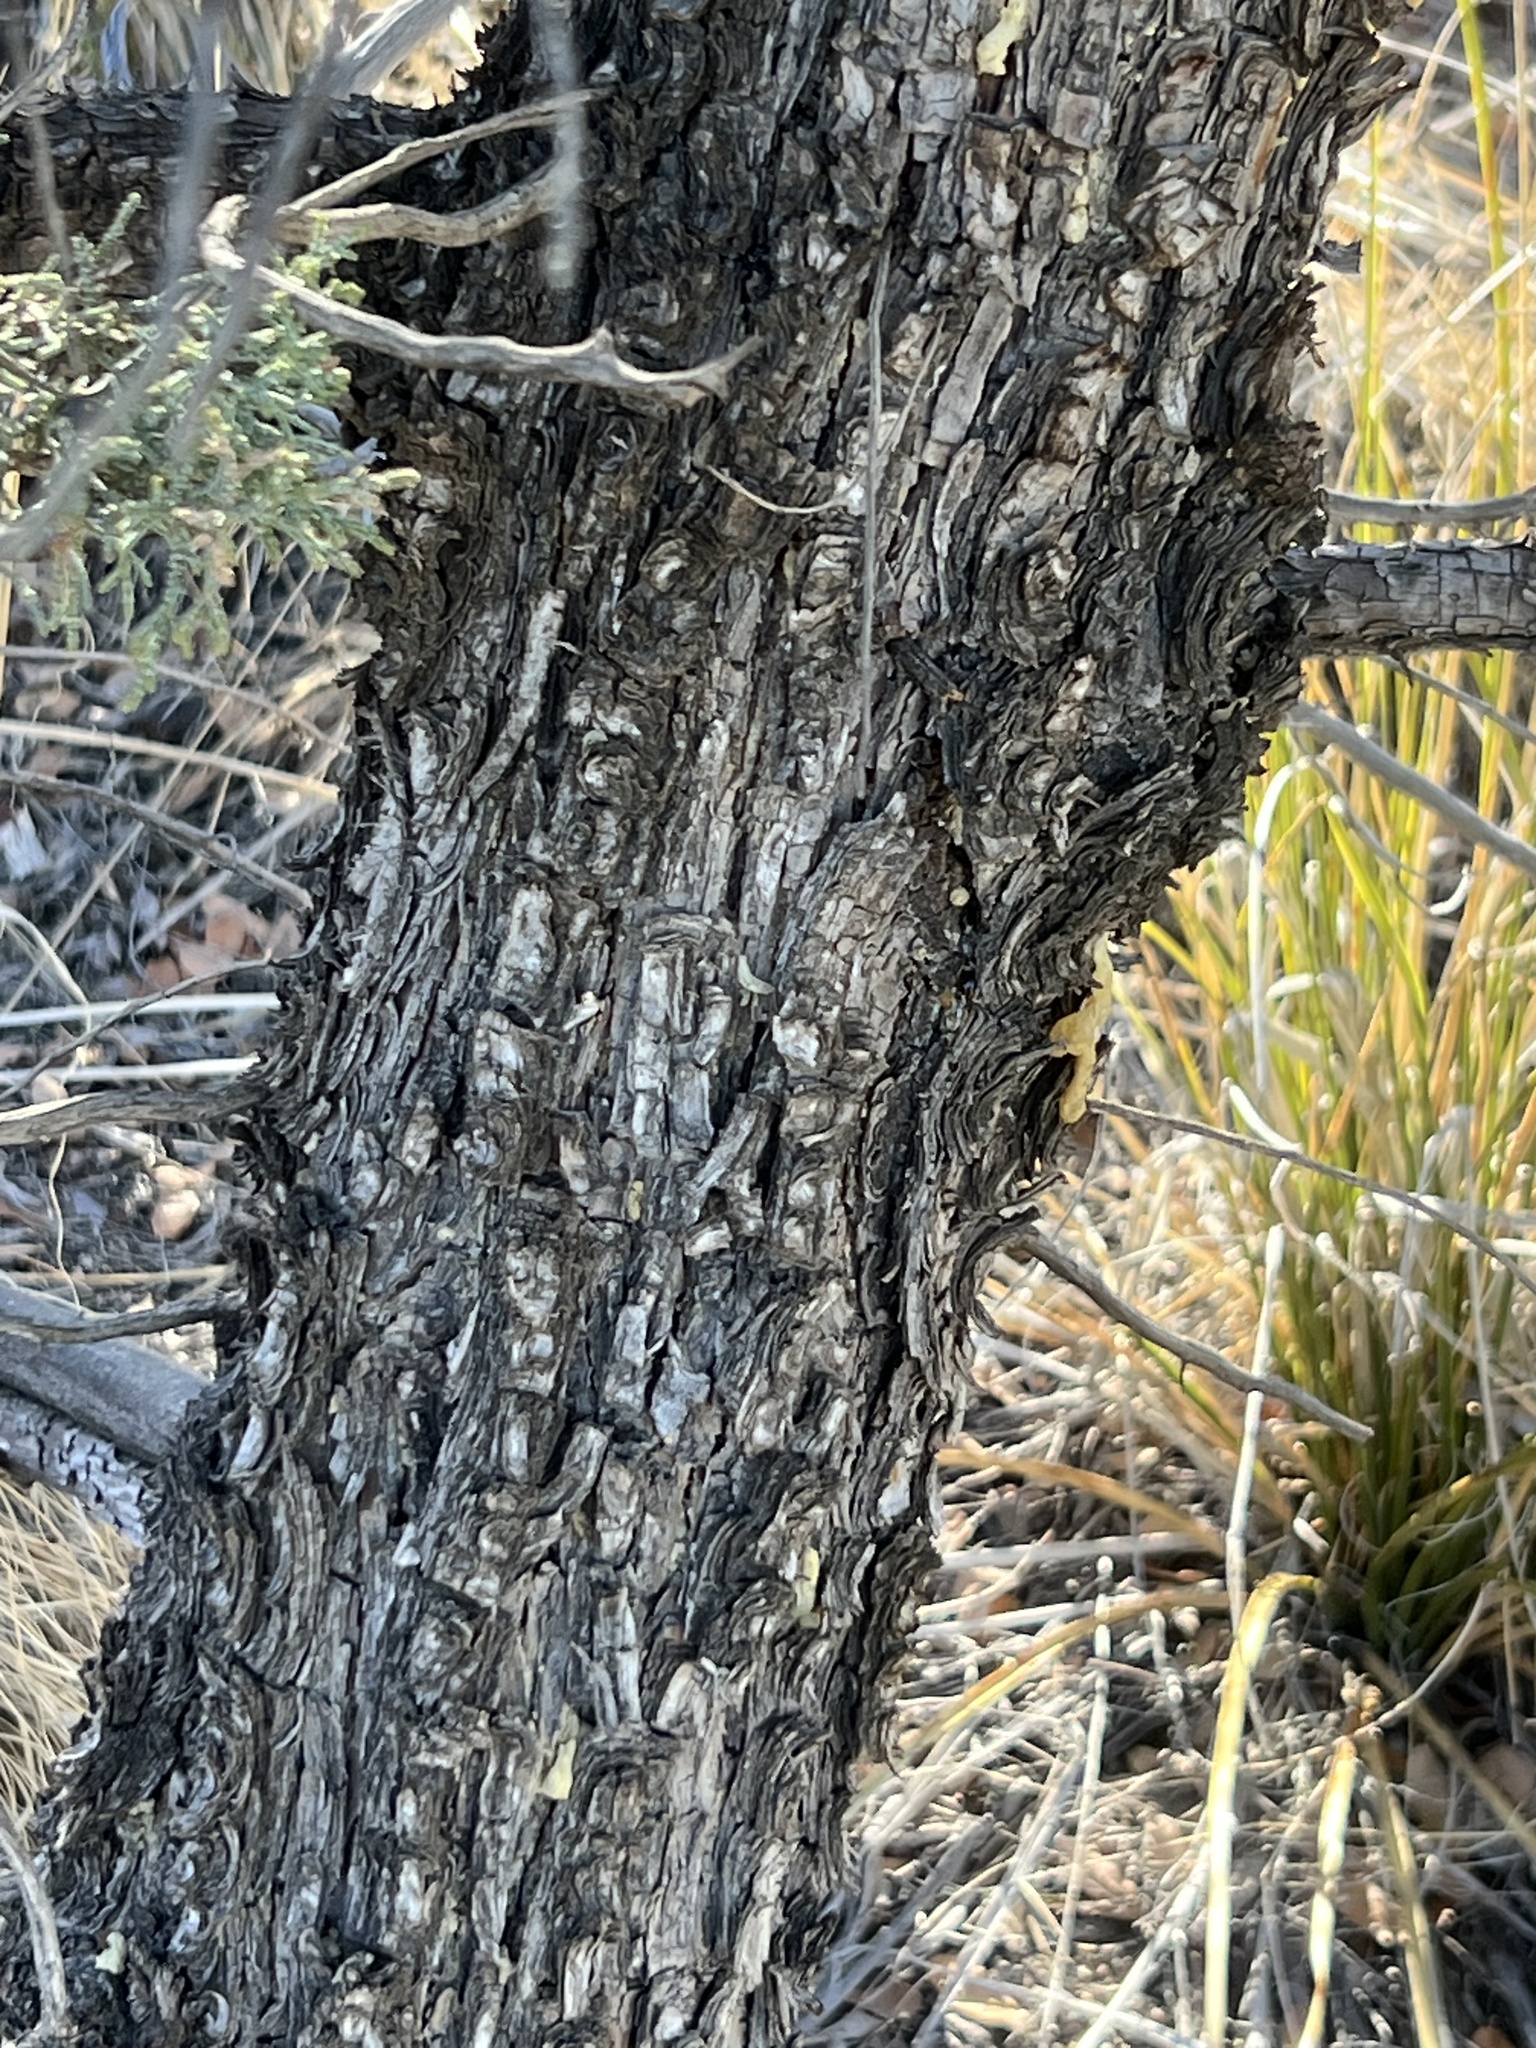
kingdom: Plantae
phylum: Tracheophyta
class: Pinopsida
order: Pinales
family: Cupressaceae
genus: Juniperus
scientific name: Juniperus deppeana
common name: Alligator juniper
